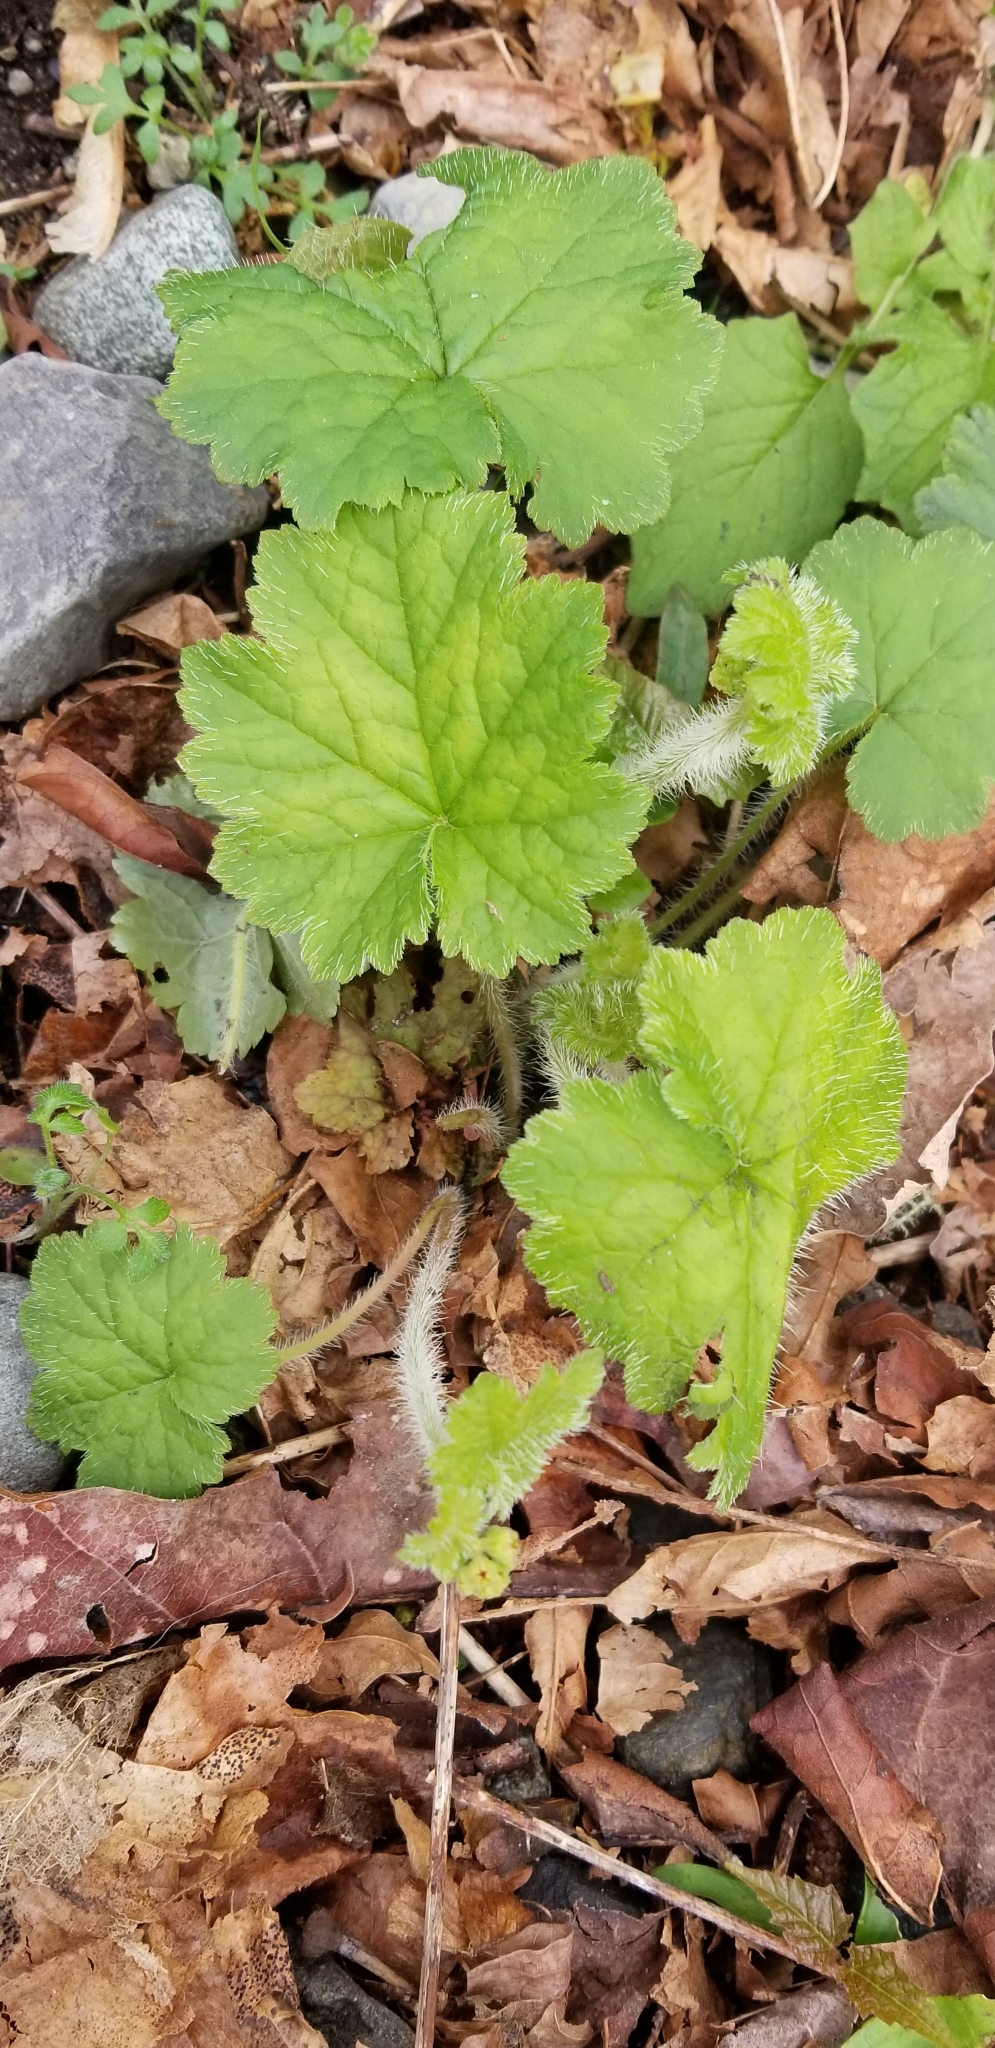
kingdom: Plantae
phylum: Tracheophyta
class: Magnoliopsida
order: Saxifragales
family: Saxifragaceae
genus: Tellima
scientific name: Tellima grandiflora
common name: Fringecups
